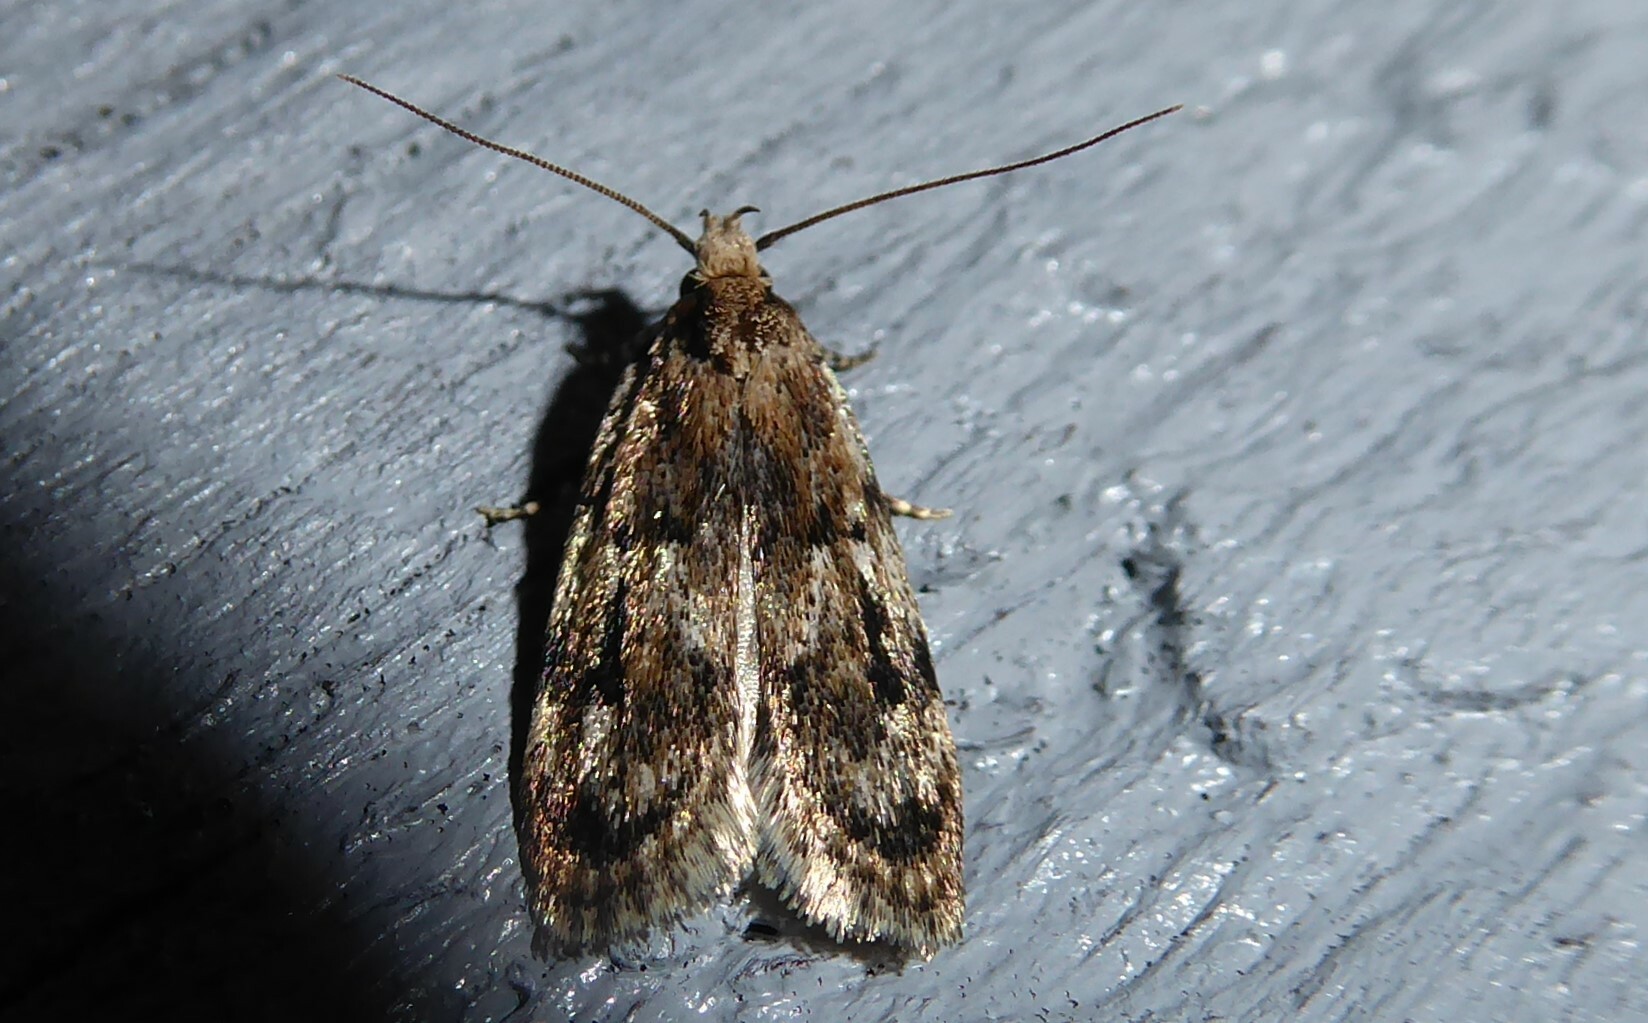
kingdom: Animalia
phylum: Arthropoda
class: Insecta
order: Lepidoptera
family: Oecophoridae
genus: Barea
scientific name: Barea exarcha
